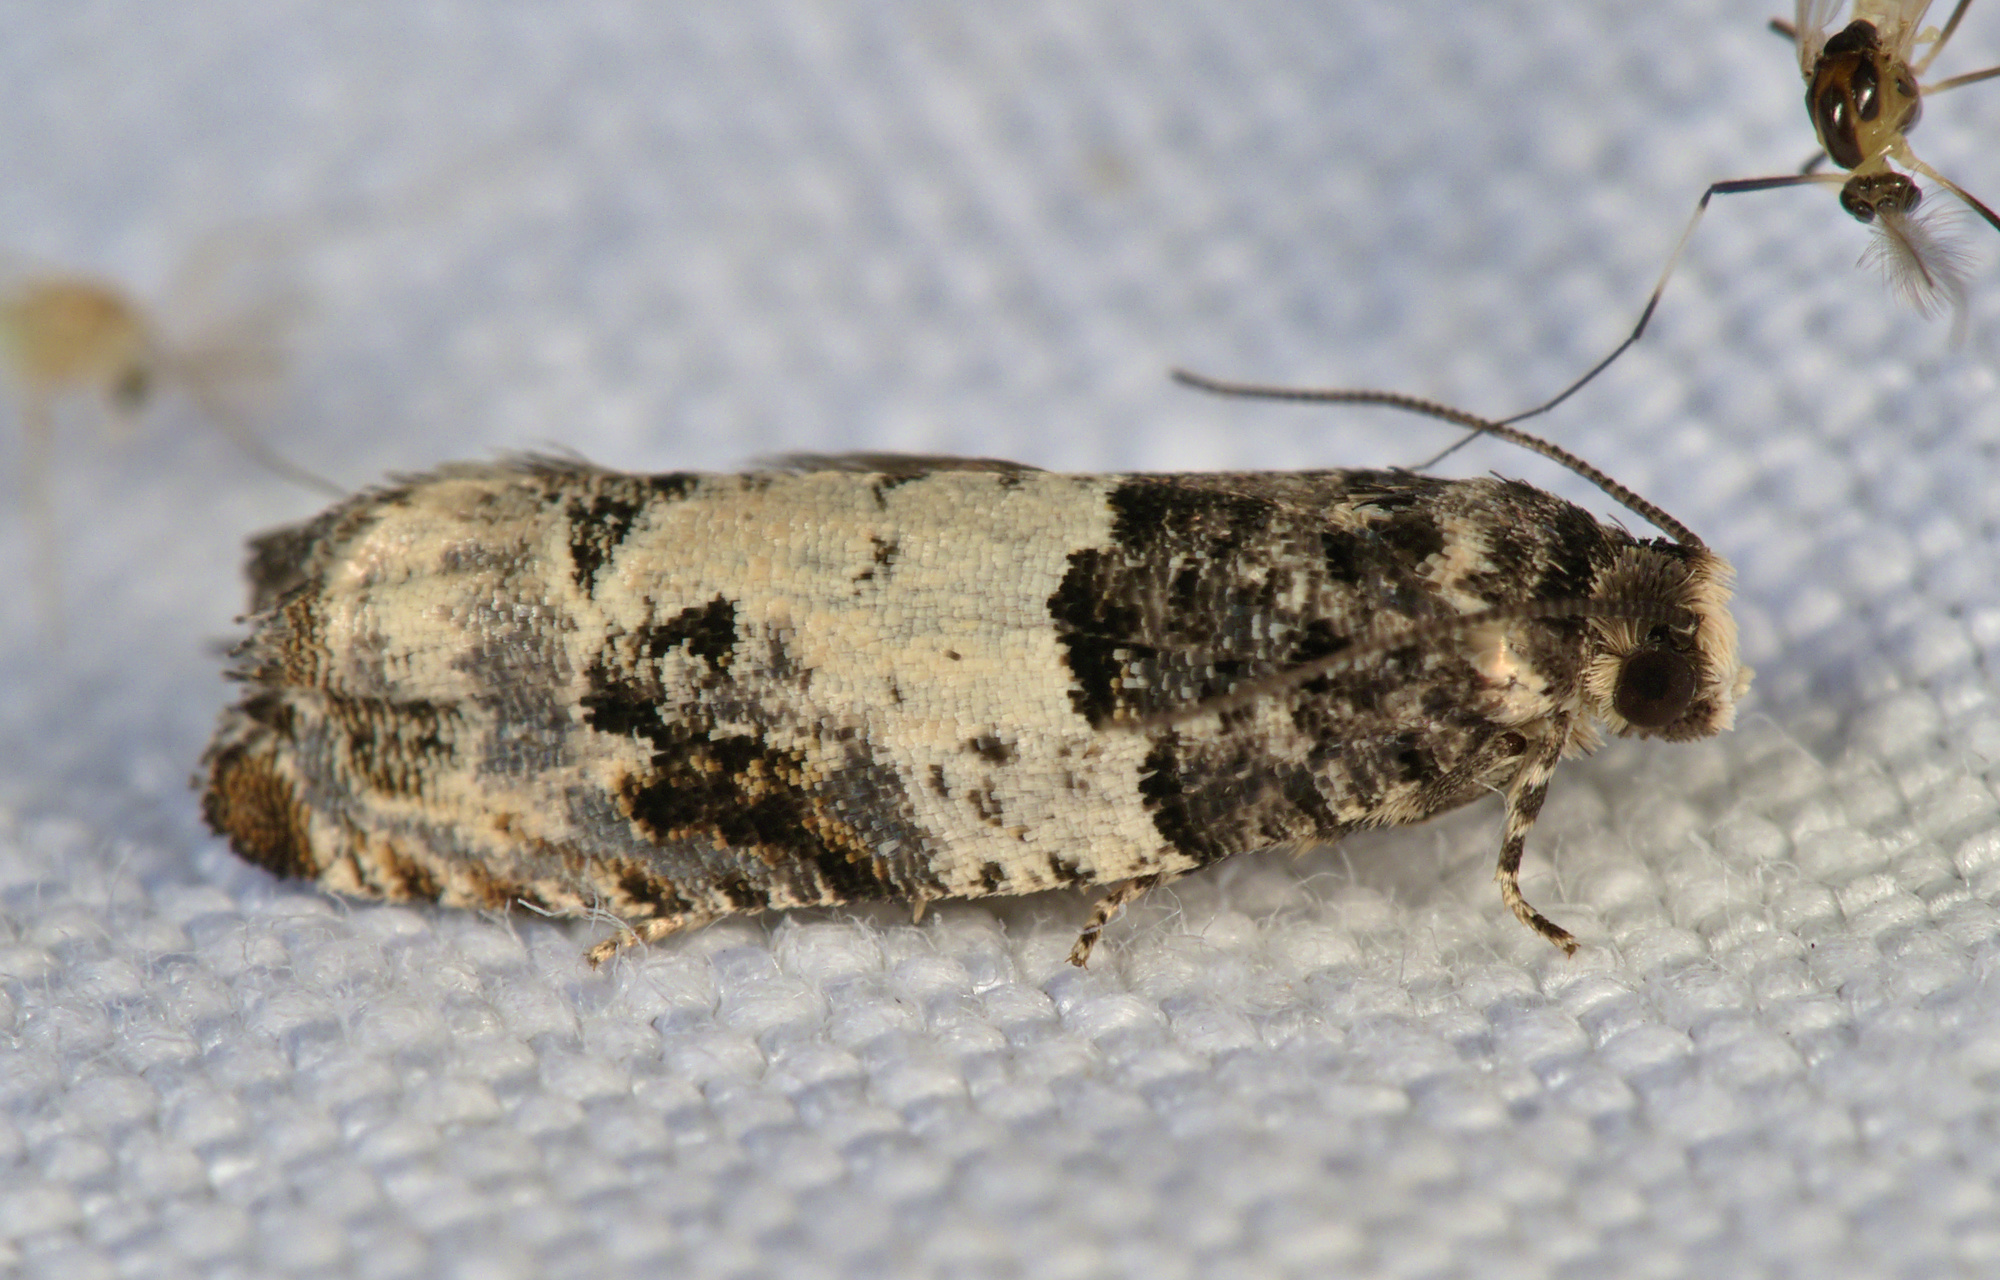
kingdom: Animalia
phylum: Arthropoda
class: Insecta
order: Lepidoptera
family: Tortricidae
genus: Gypsonoma
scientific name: Gypsonoma sociana
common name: White cloaked shoot
